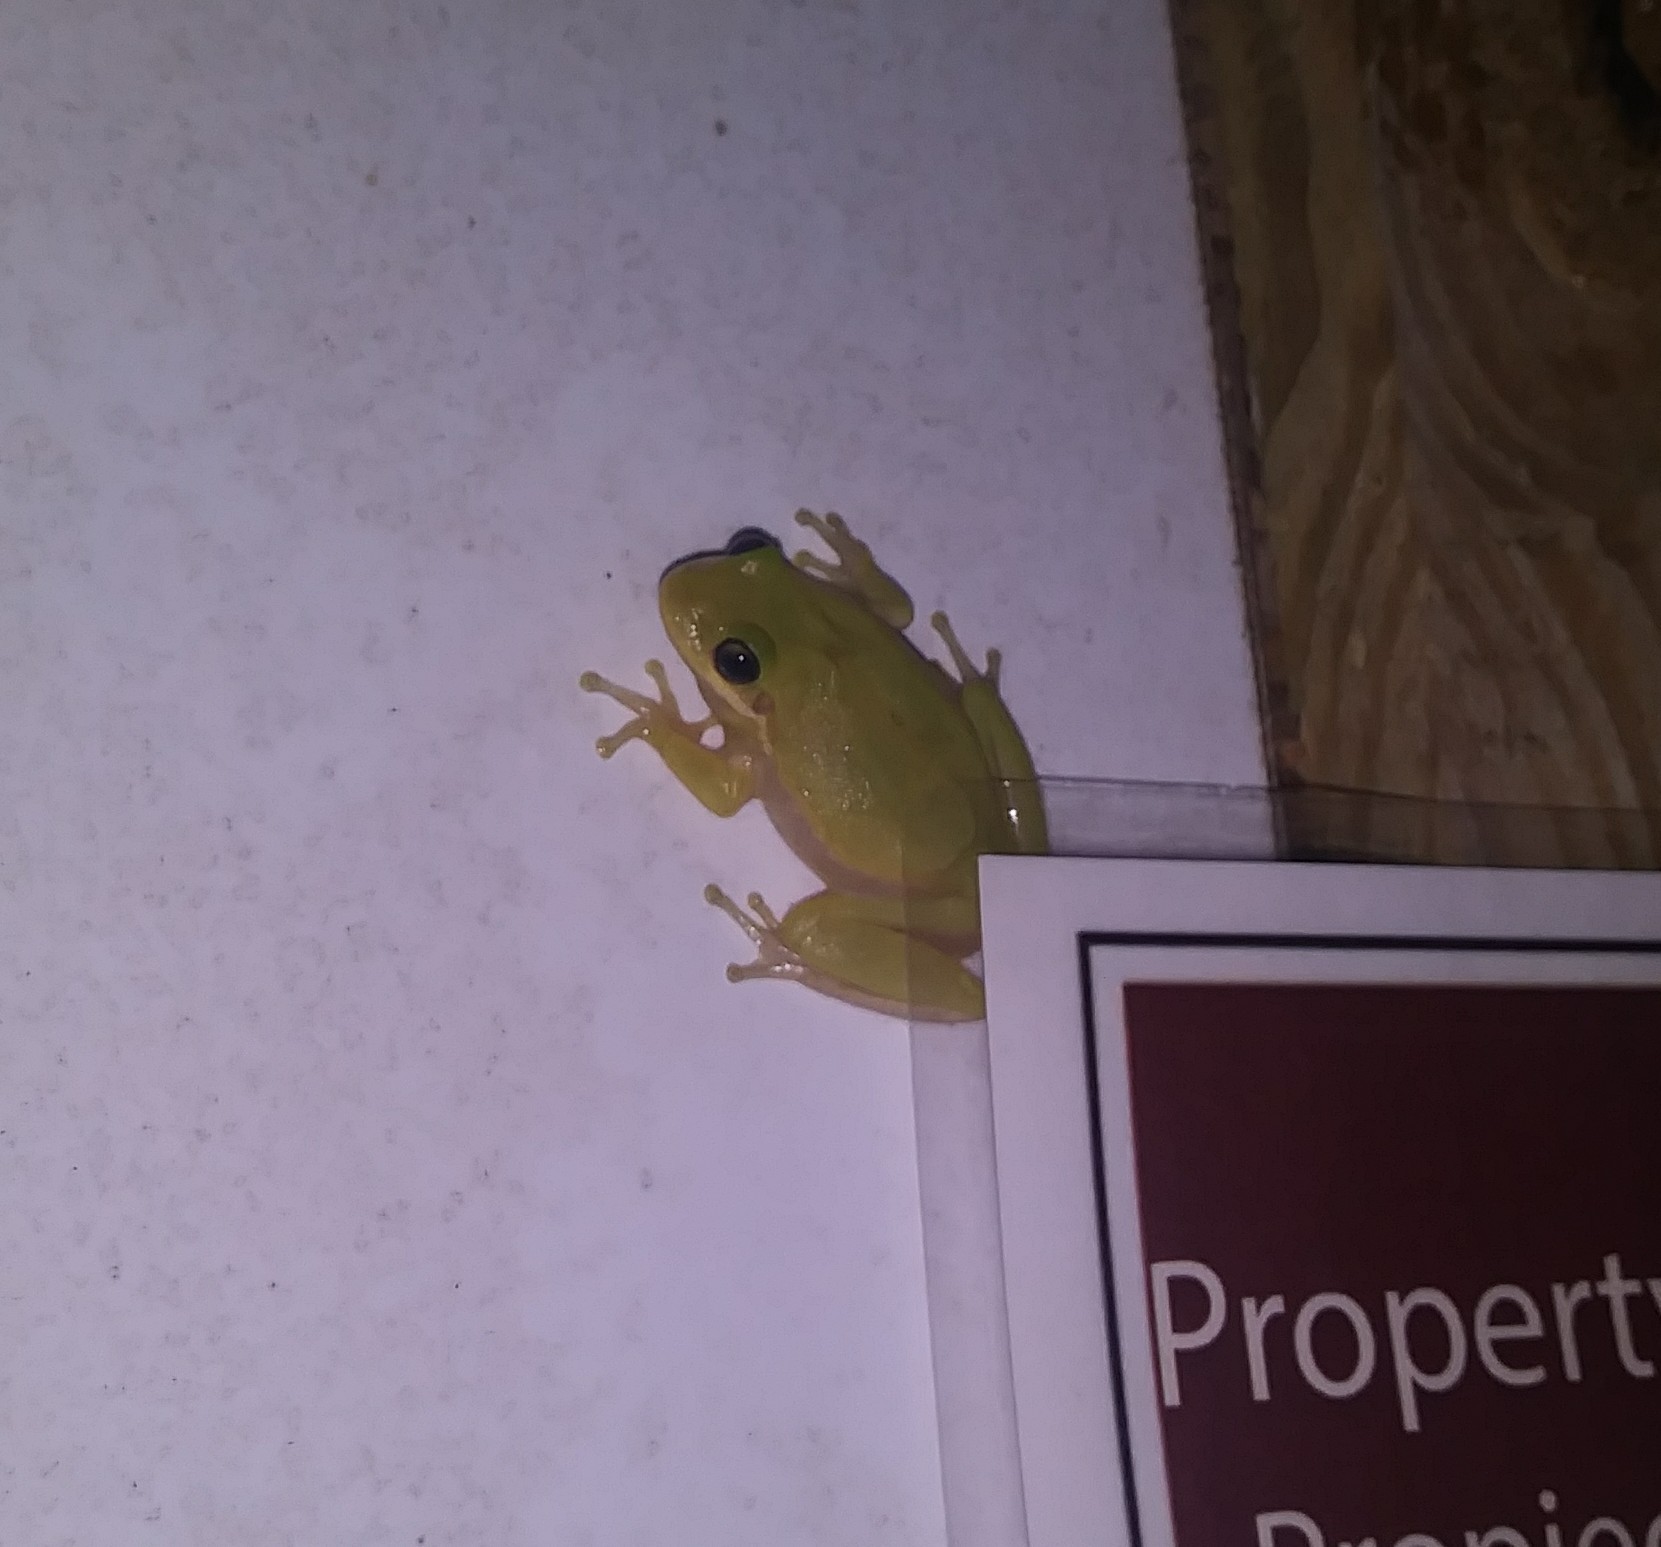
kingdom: Animalia
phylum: Chordata
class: Amphibia
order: Anura
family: Hylidae
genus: Dryophytes
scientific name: Dryophytes squirellus
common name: Squirrel treefrog
